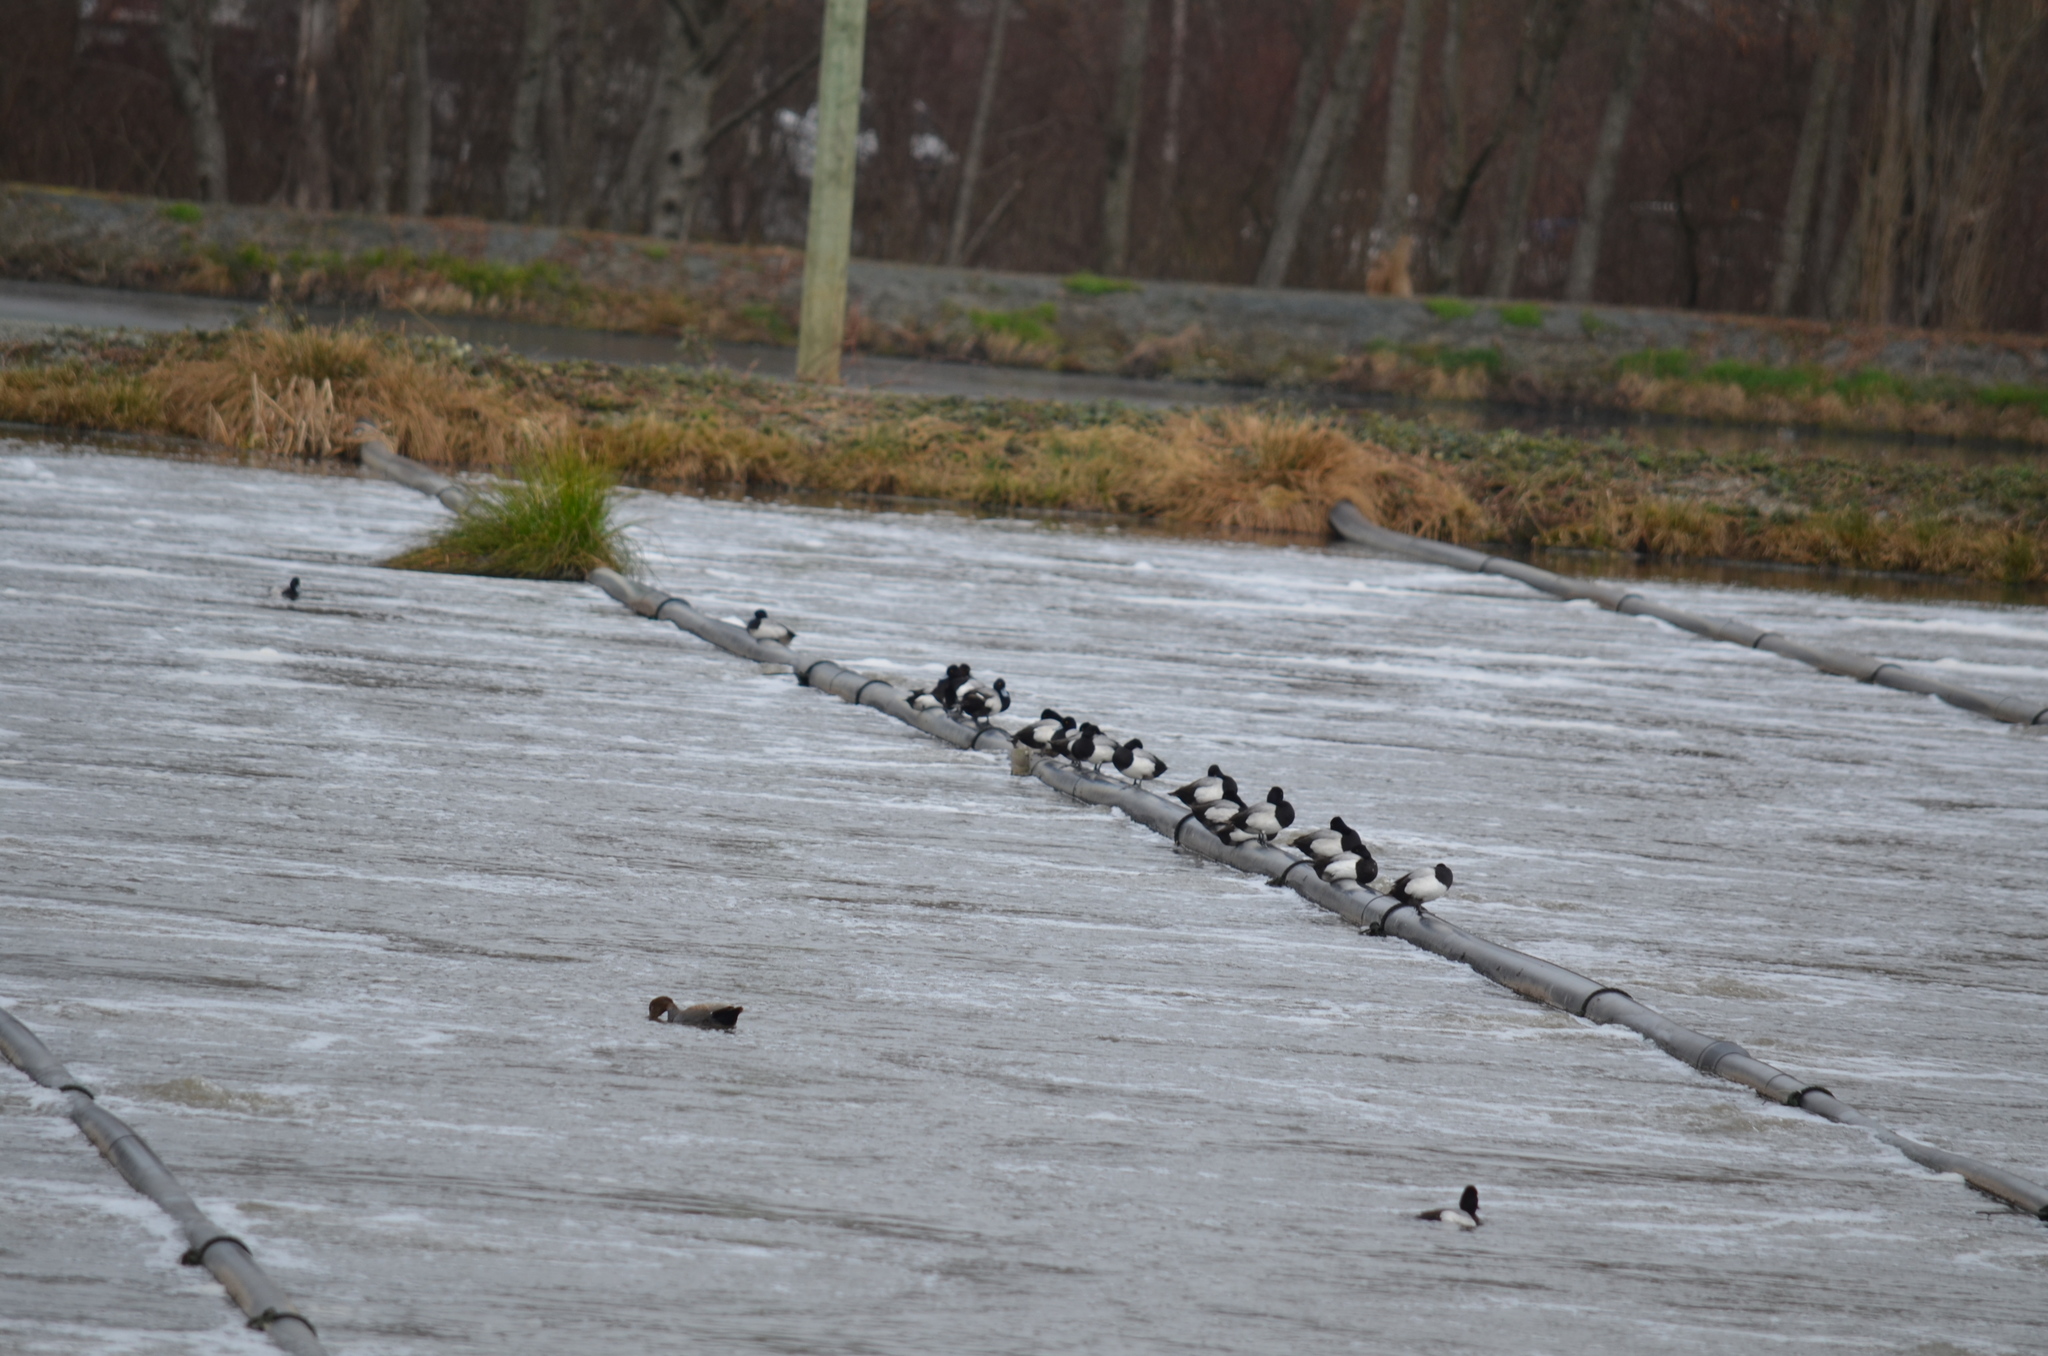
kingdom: Animalia
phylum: Chordata
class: Aves
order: Anseriformes
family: Anatidae
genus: Aythya
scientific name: Aythya affinis
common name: Lesser scaup
